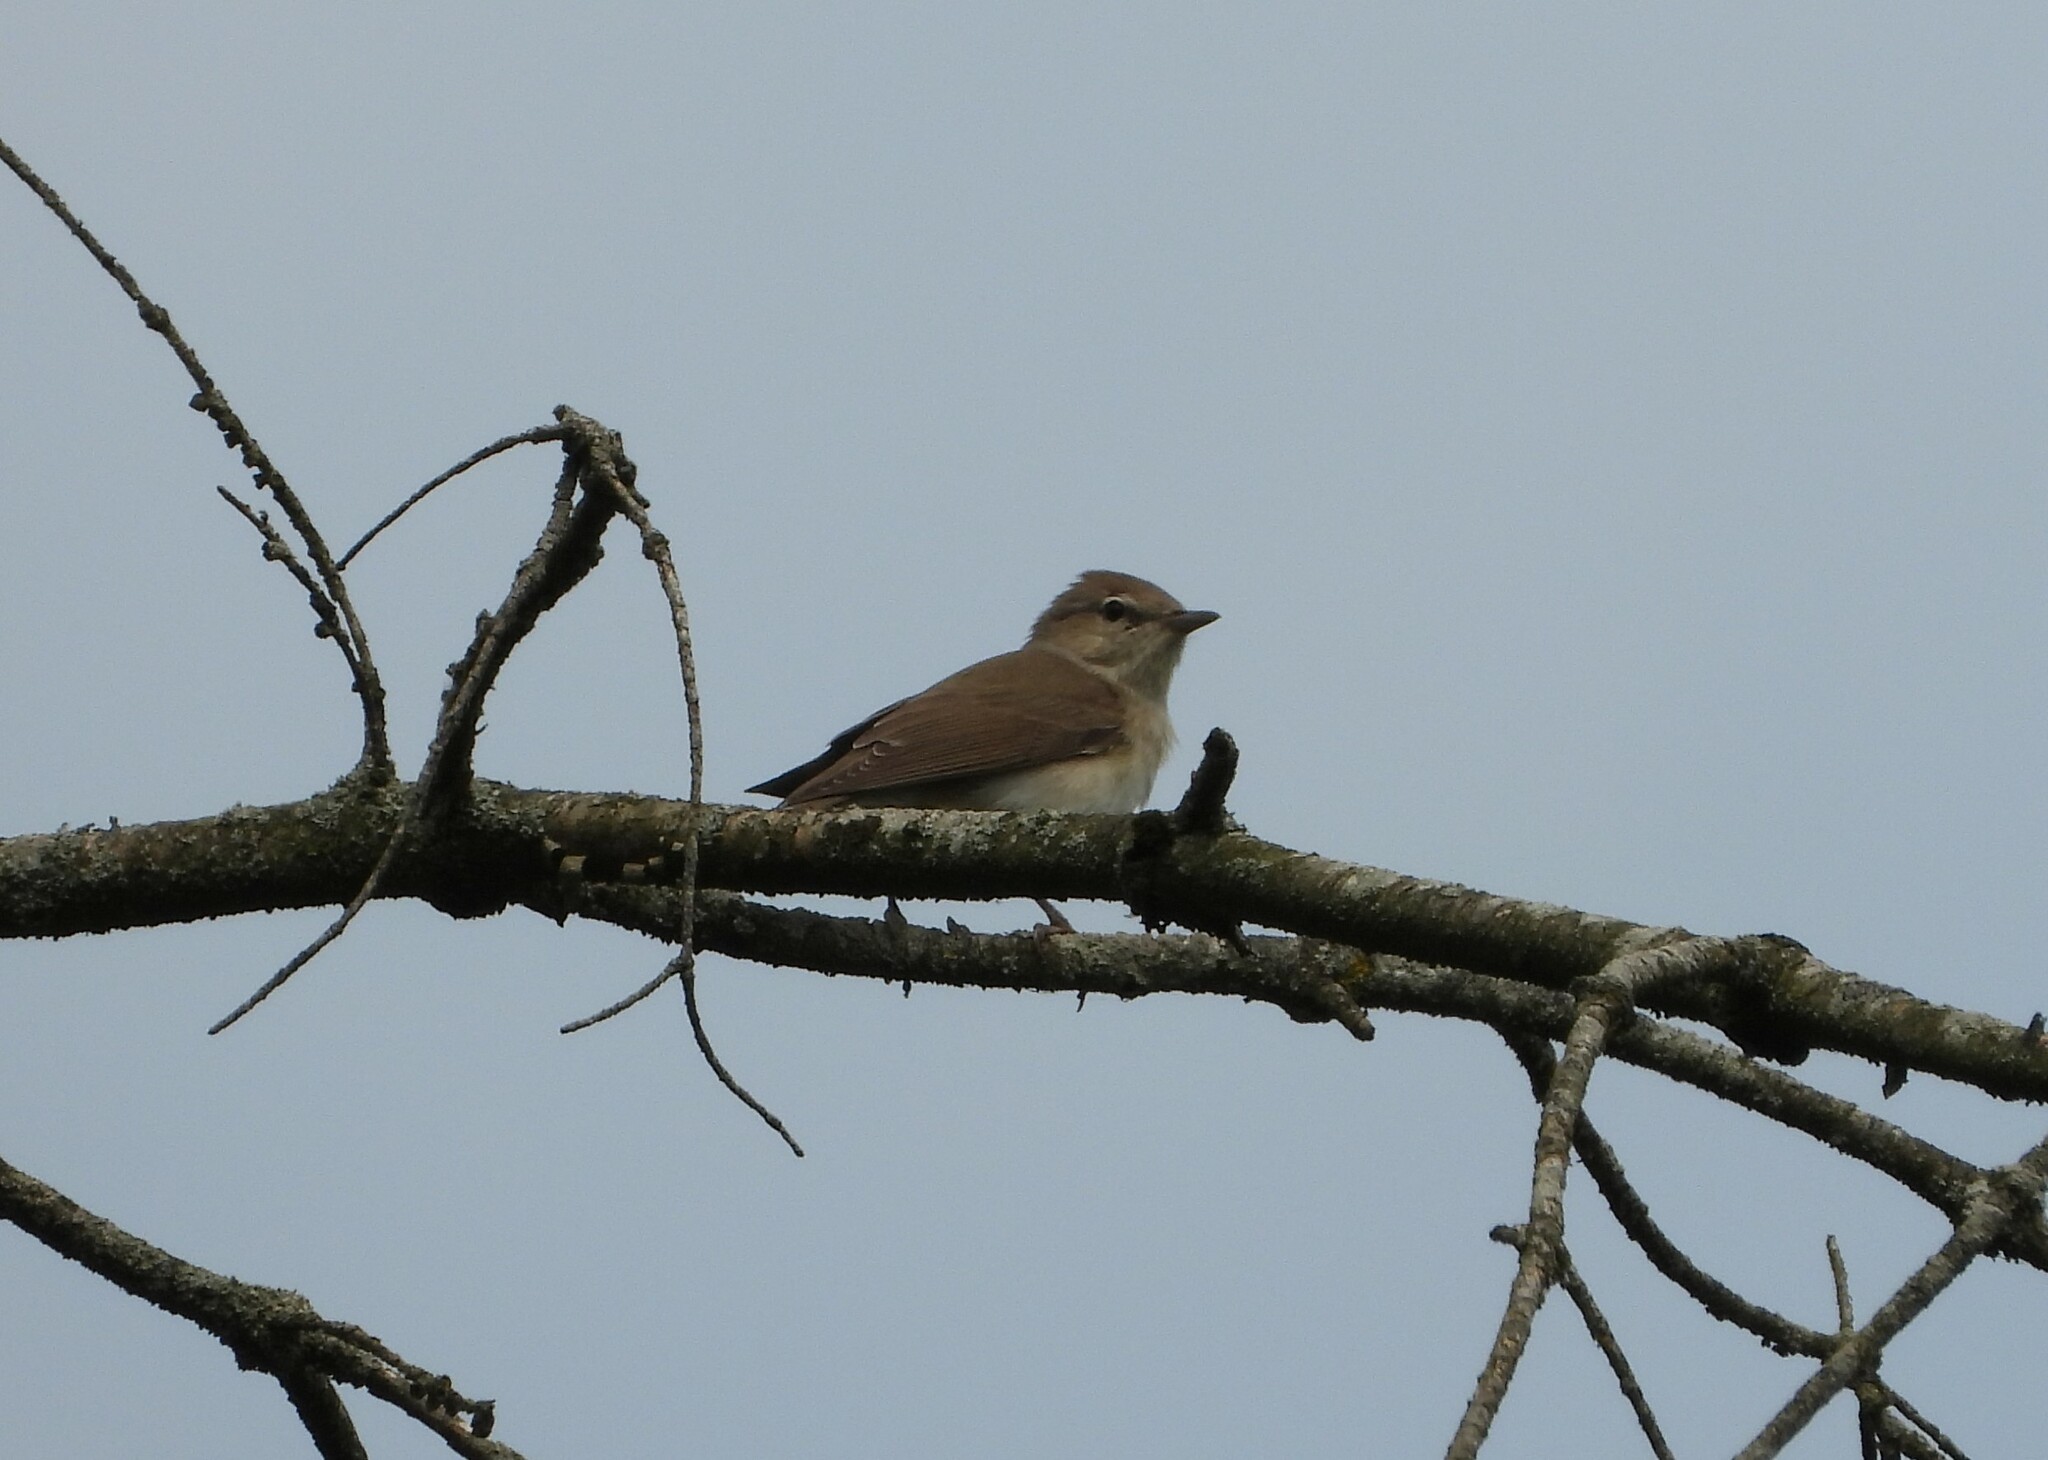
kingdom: Animalia
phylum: Chordata
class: Aves
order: Passeriformes
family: Sylviidae
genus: Sylvia
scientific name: Sylvia borin
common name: Garden warbler
